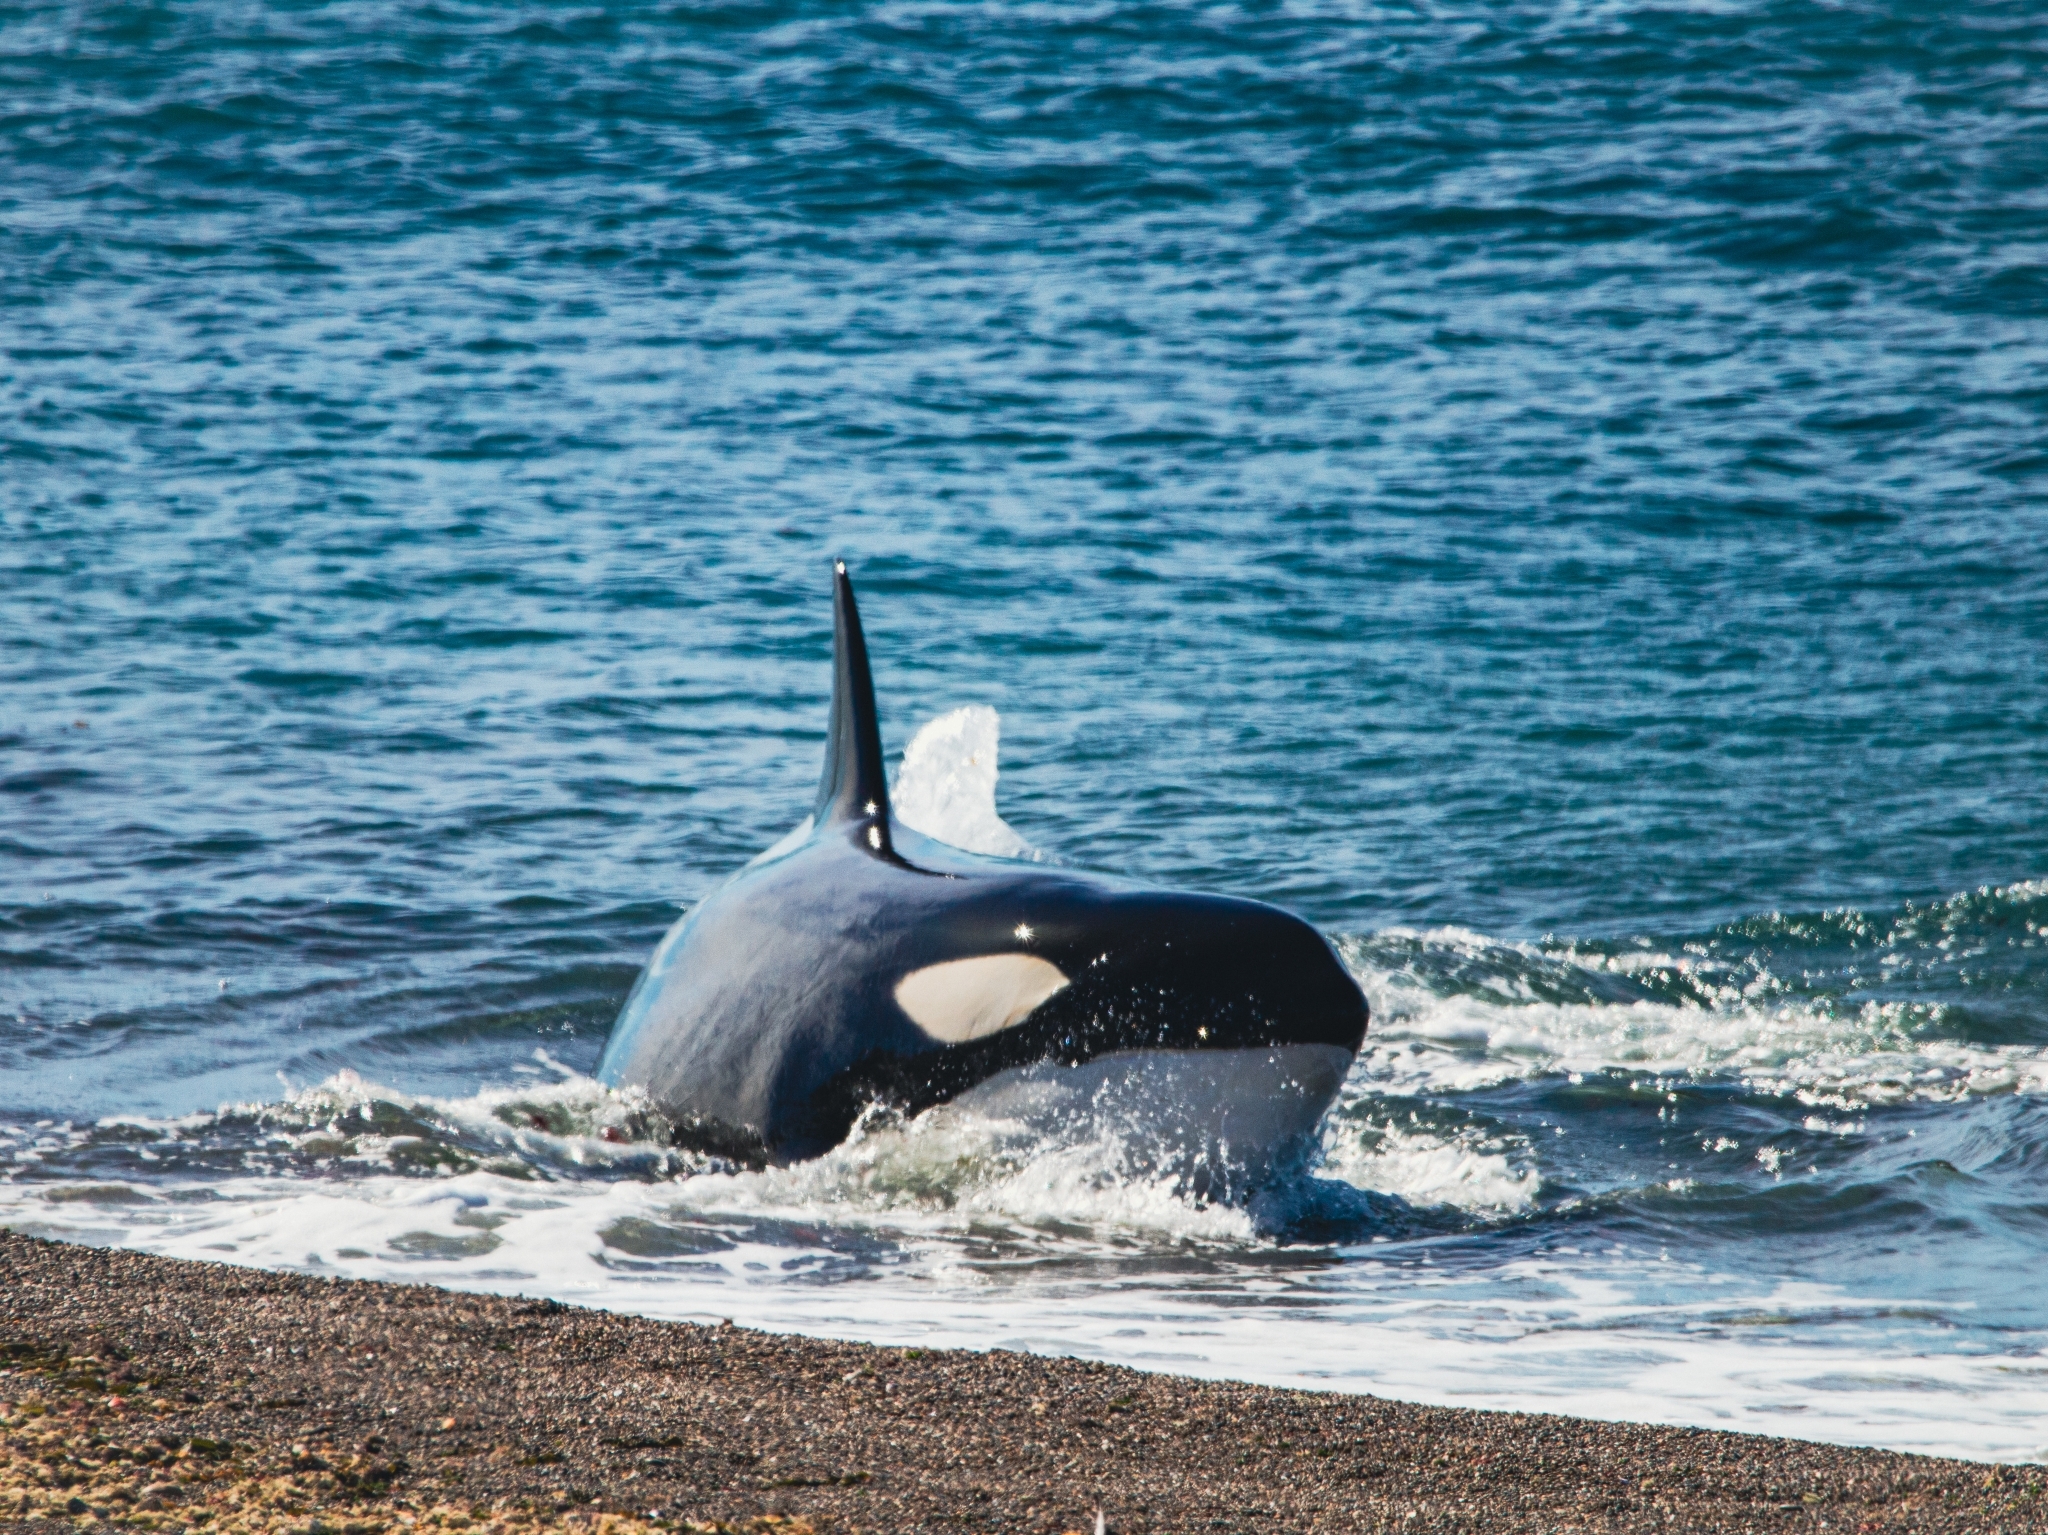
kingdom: Animalia
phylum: Chordata
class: Mammalia
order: Cetacea
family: Delphinidae
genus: Orcinus
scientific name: Orcinus orca
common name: Killer whale
